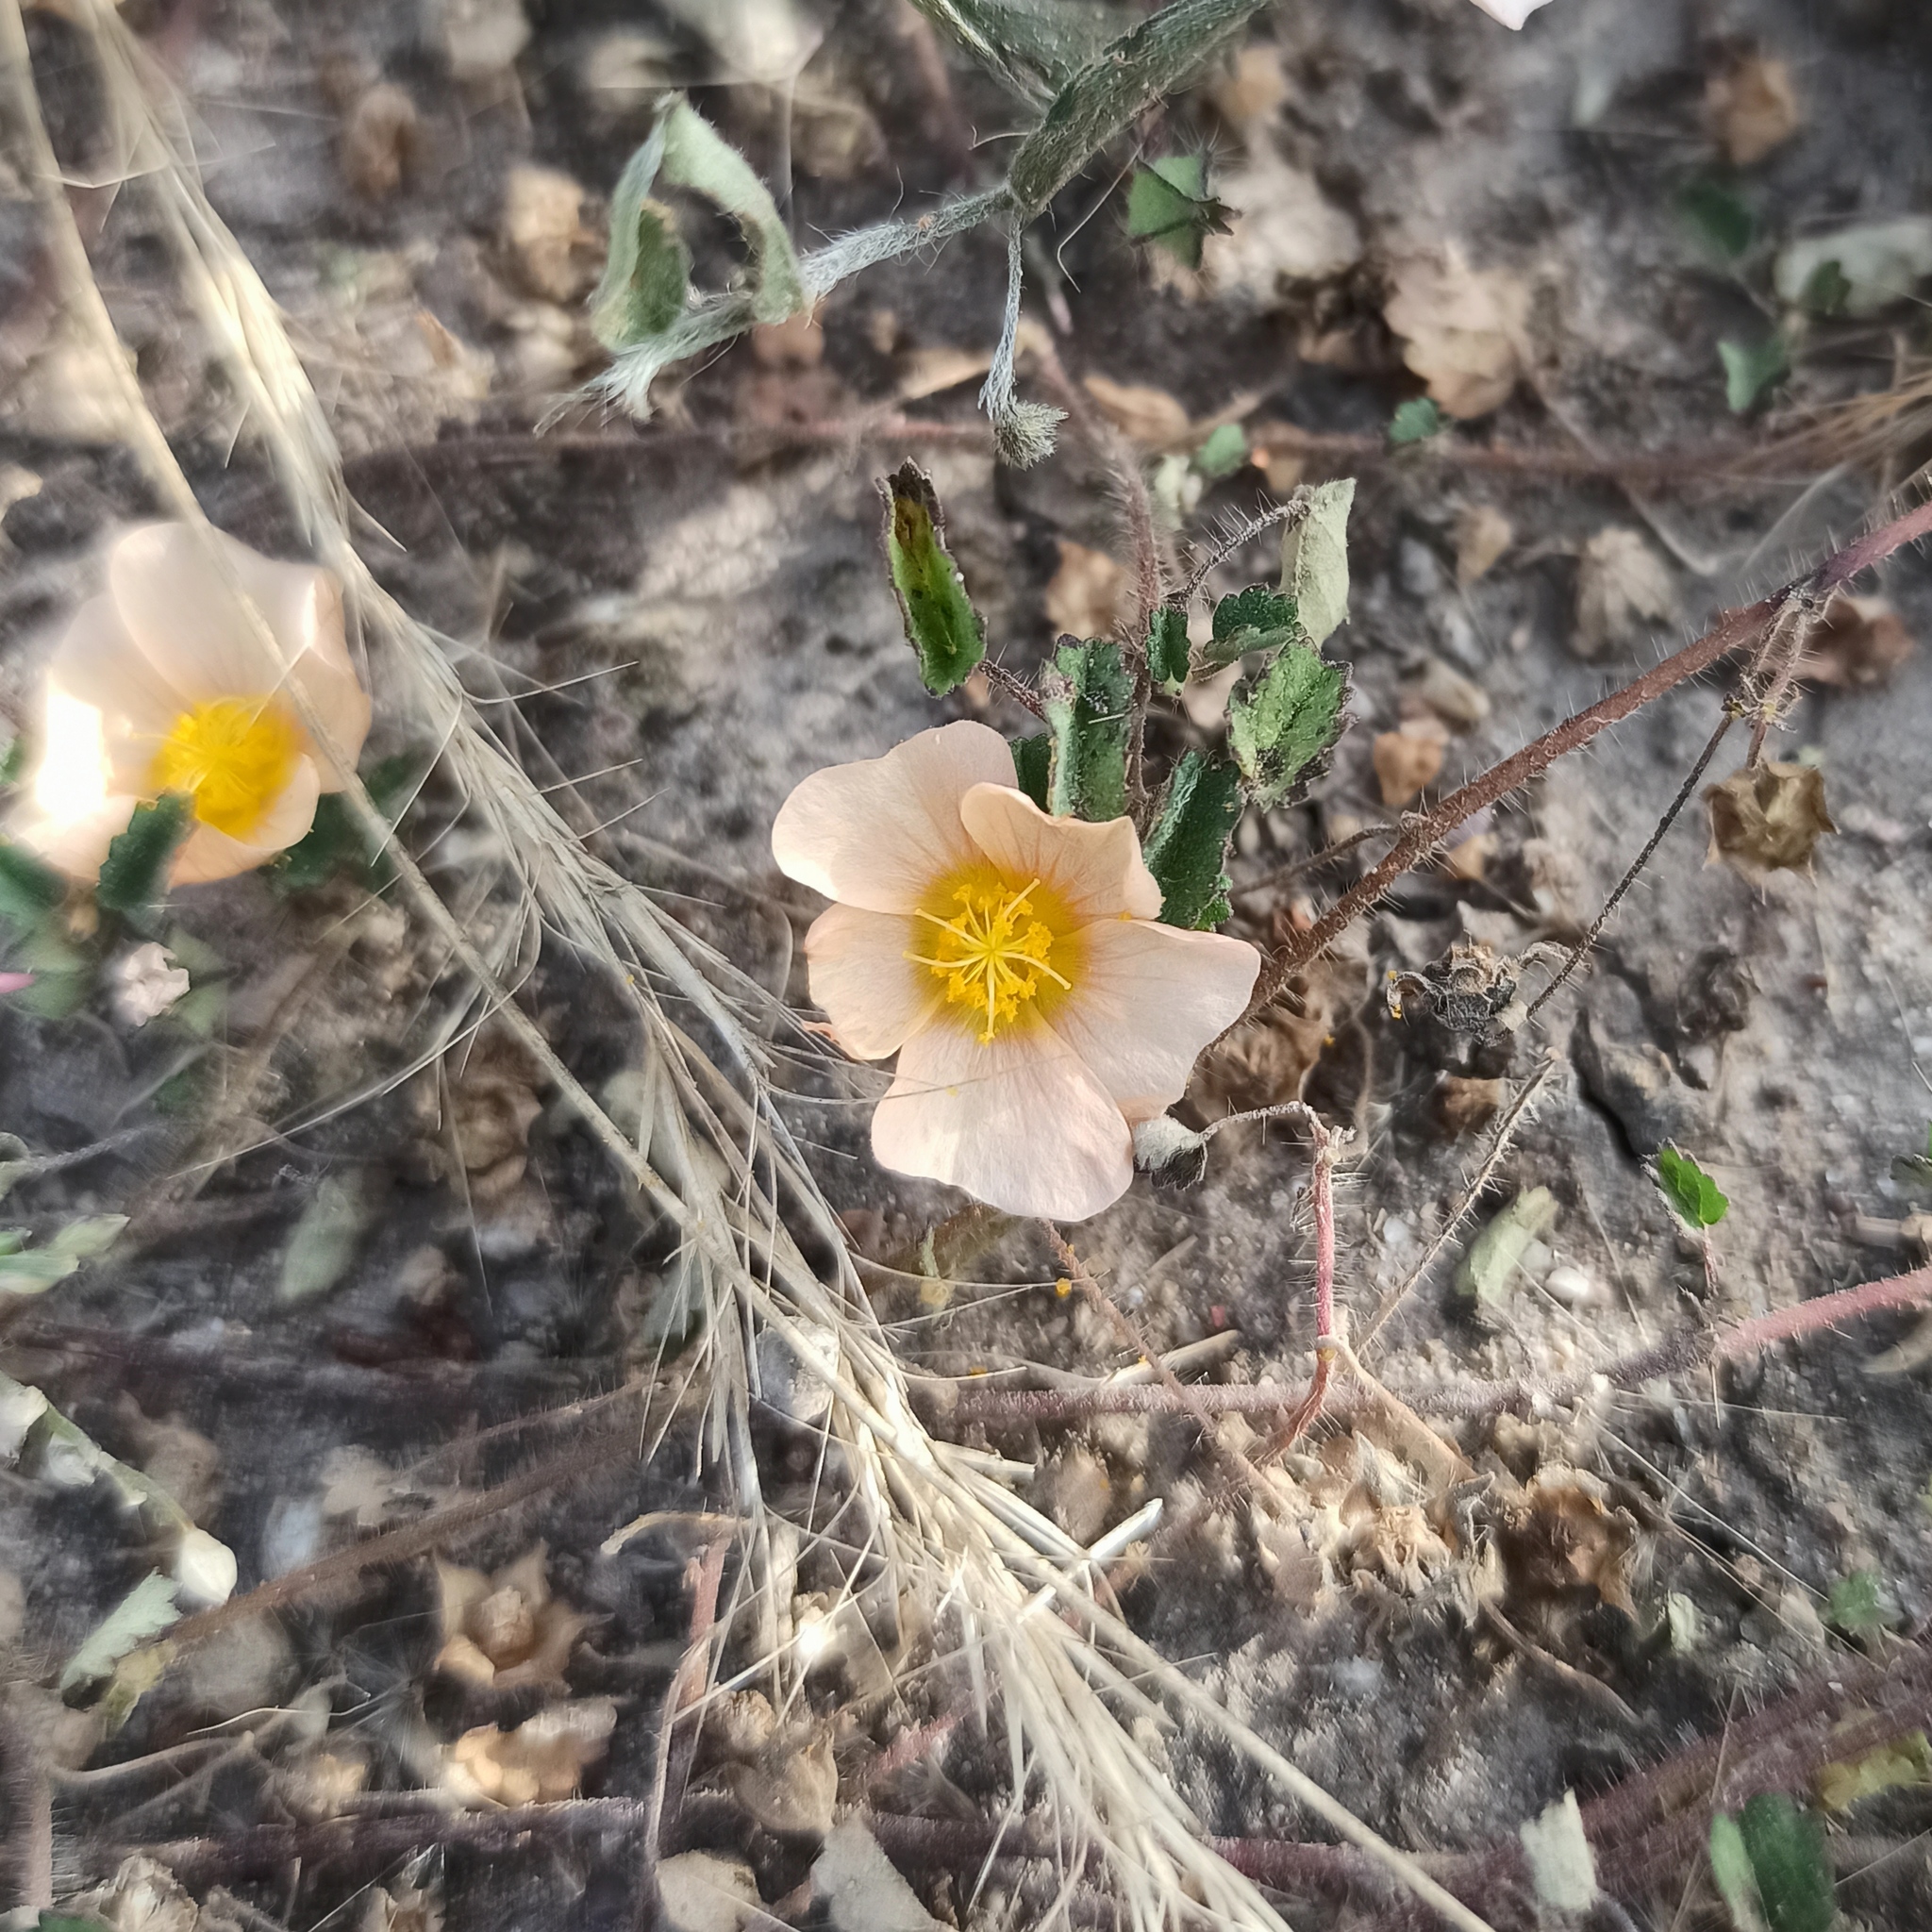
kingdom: Plantae
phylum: Tracheophyta
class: Magnoliopsida
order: Malvales
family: Malvaceae
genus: Sida
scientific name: Sida abutilifolia
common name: Spreading fanpetals
